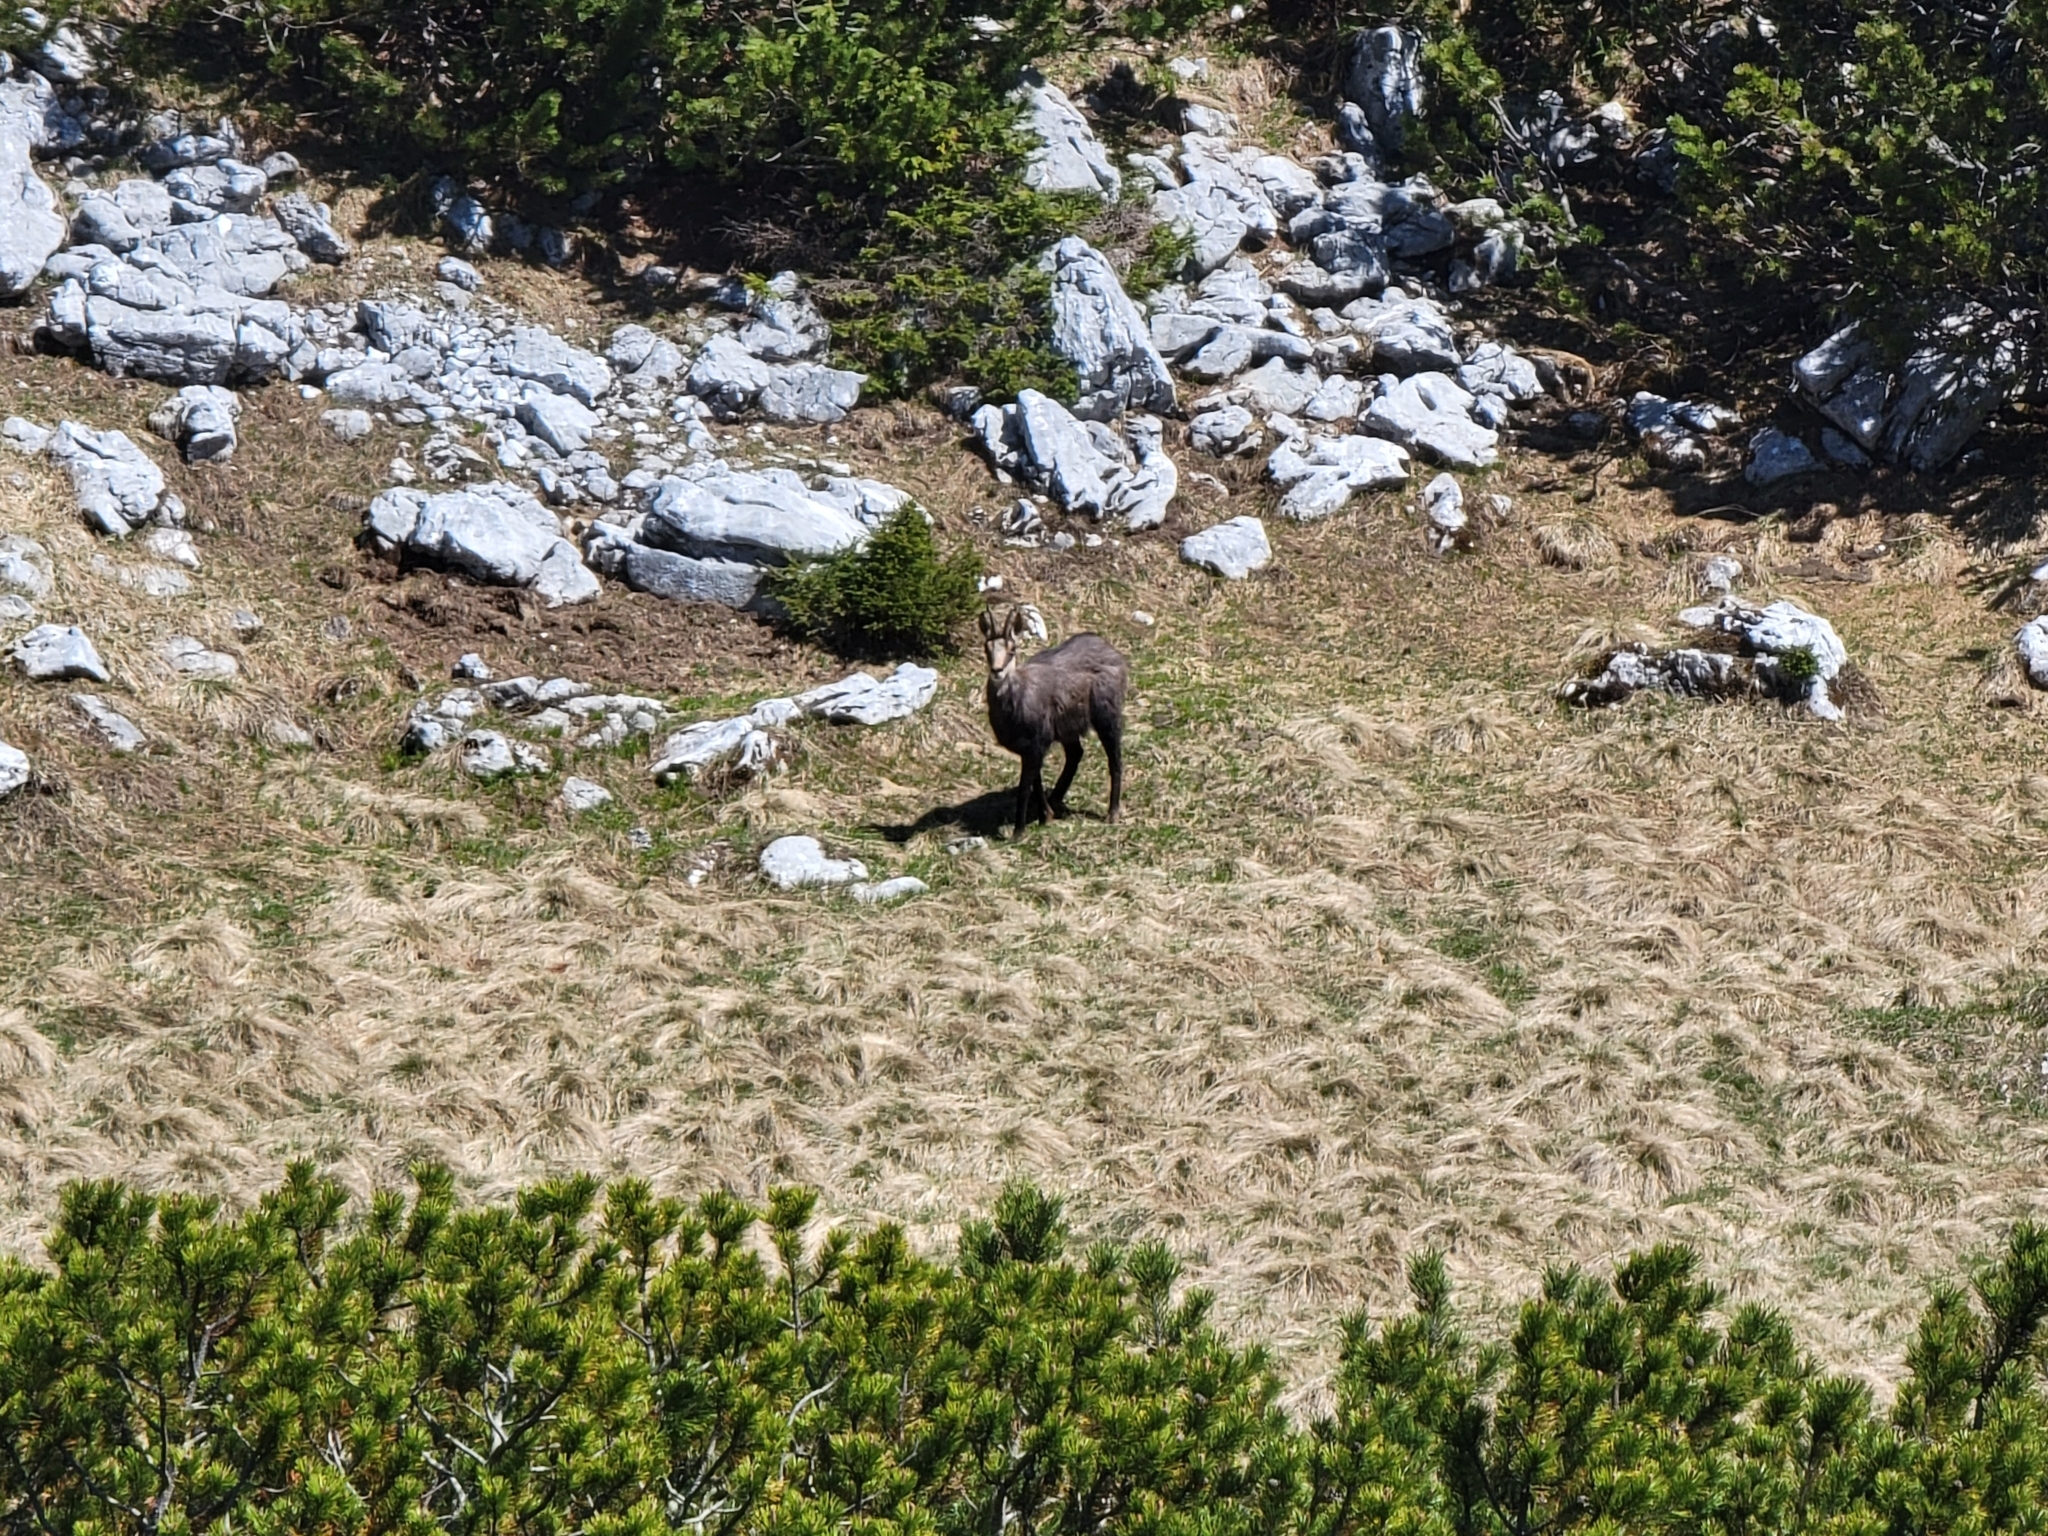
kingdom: Animalia
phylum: Chordata
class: Mammalia
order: Artiodactyla
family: Bovidae
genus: Rupicapra
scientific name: Rupicapra rupicapra
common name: Chamois
